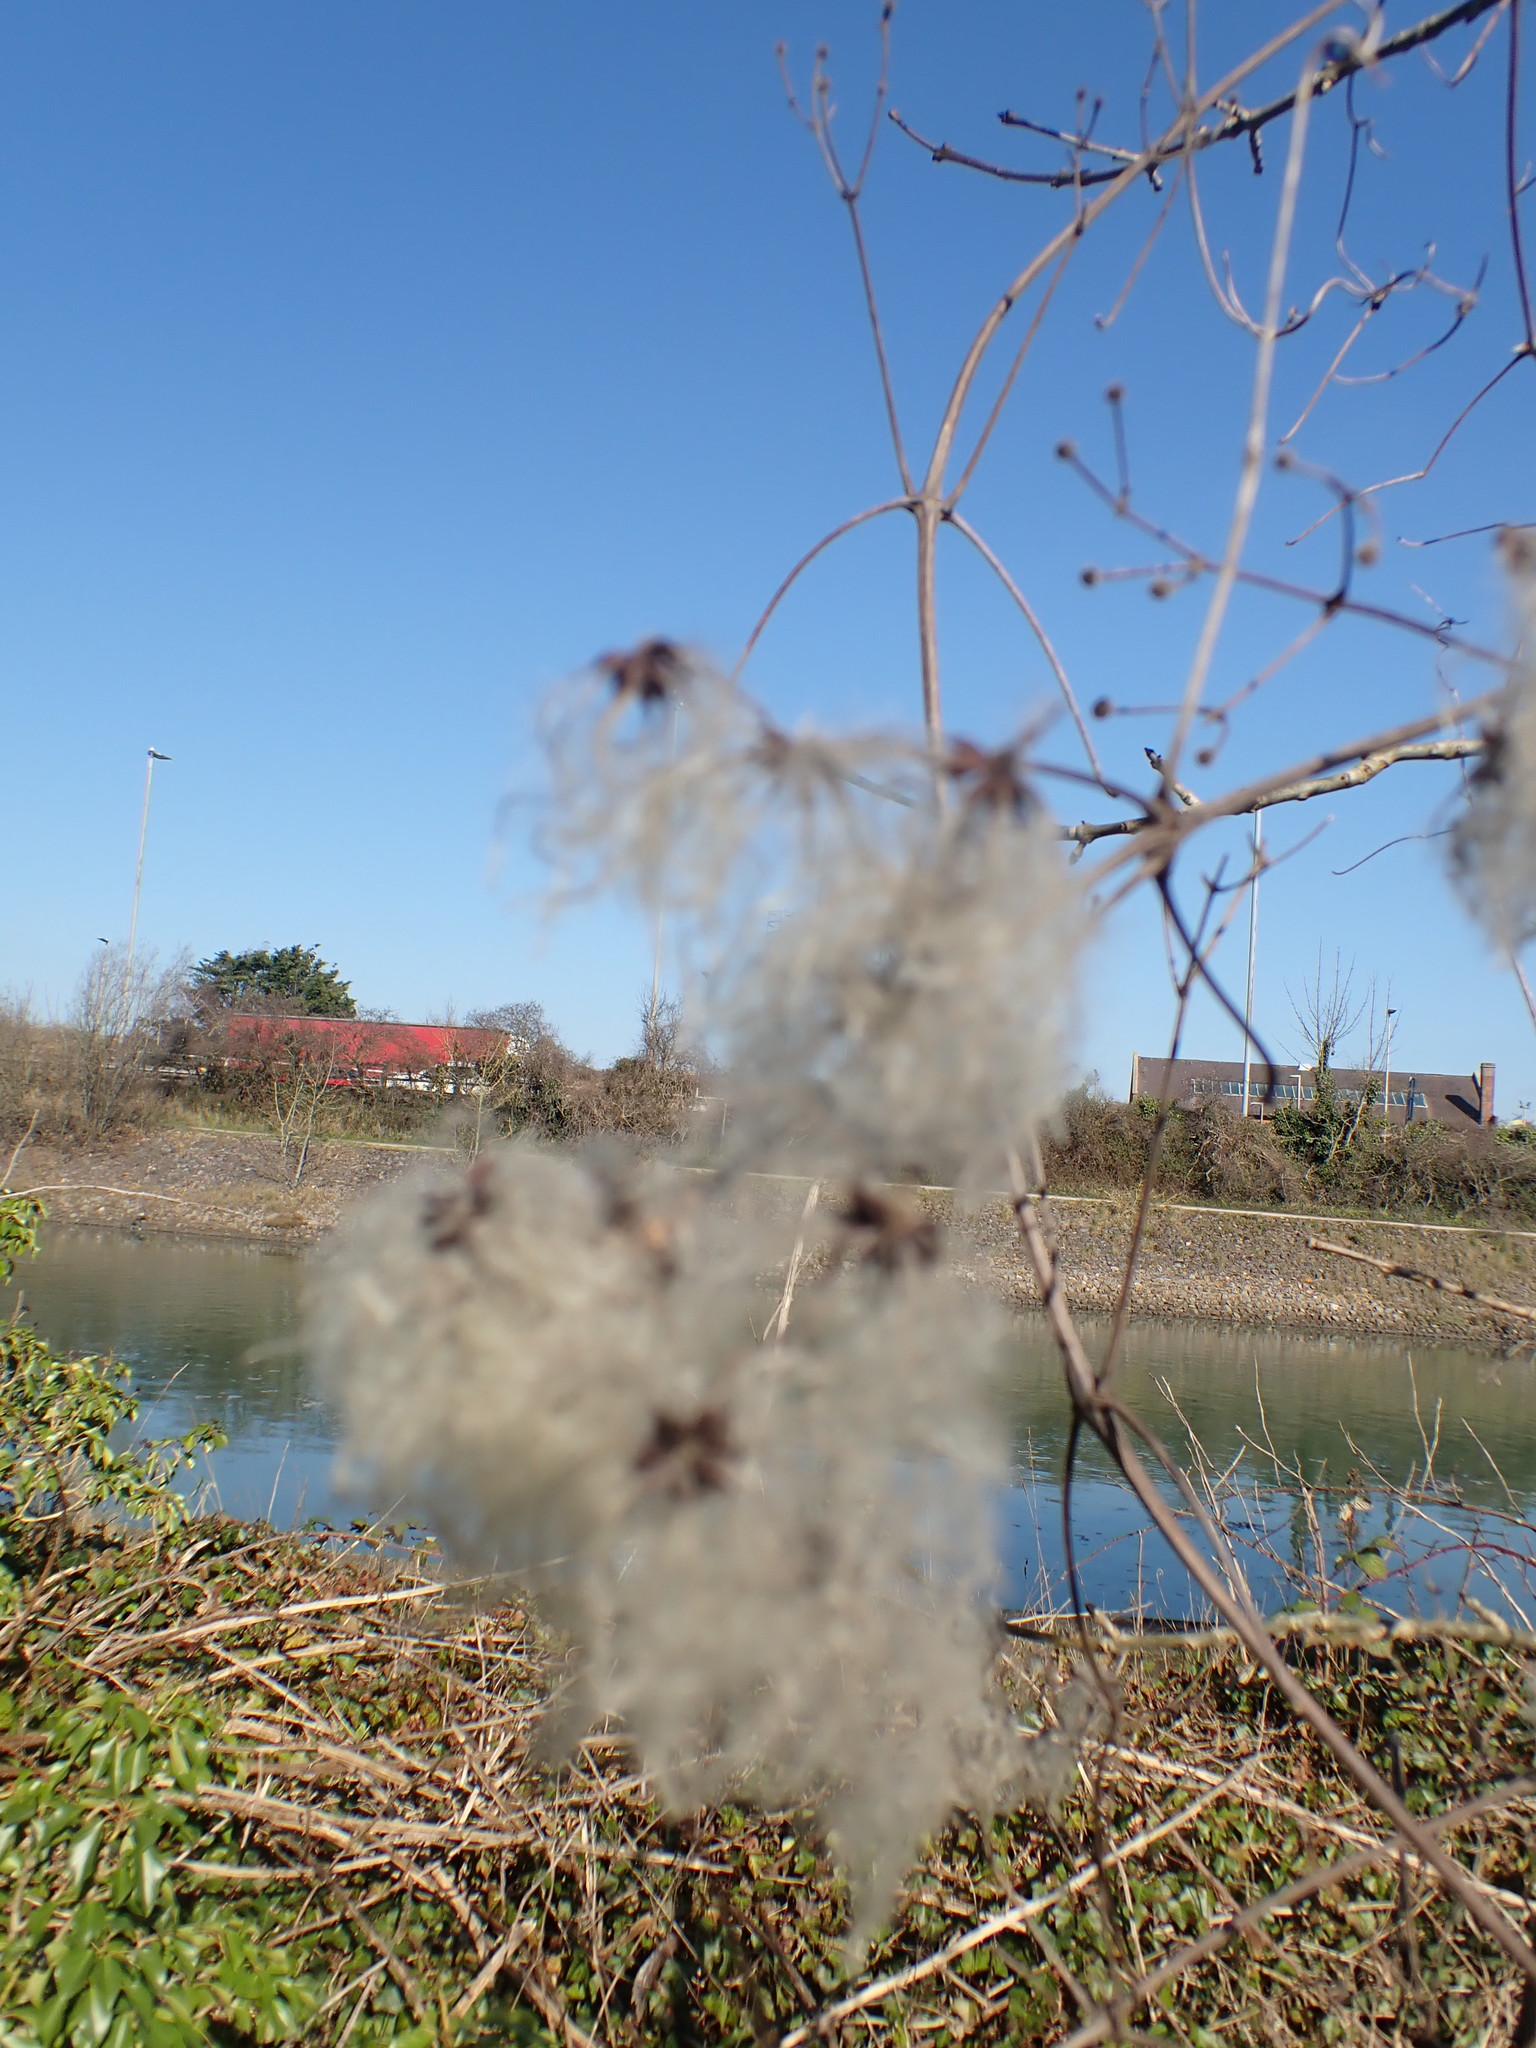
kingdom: Plantae
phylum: Tracheophyta
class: Magnoliopsida
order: Ranunculales
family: Ranunculaceae
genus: Clematis
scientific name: Clematis vitalba
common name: Evergreen clematis
